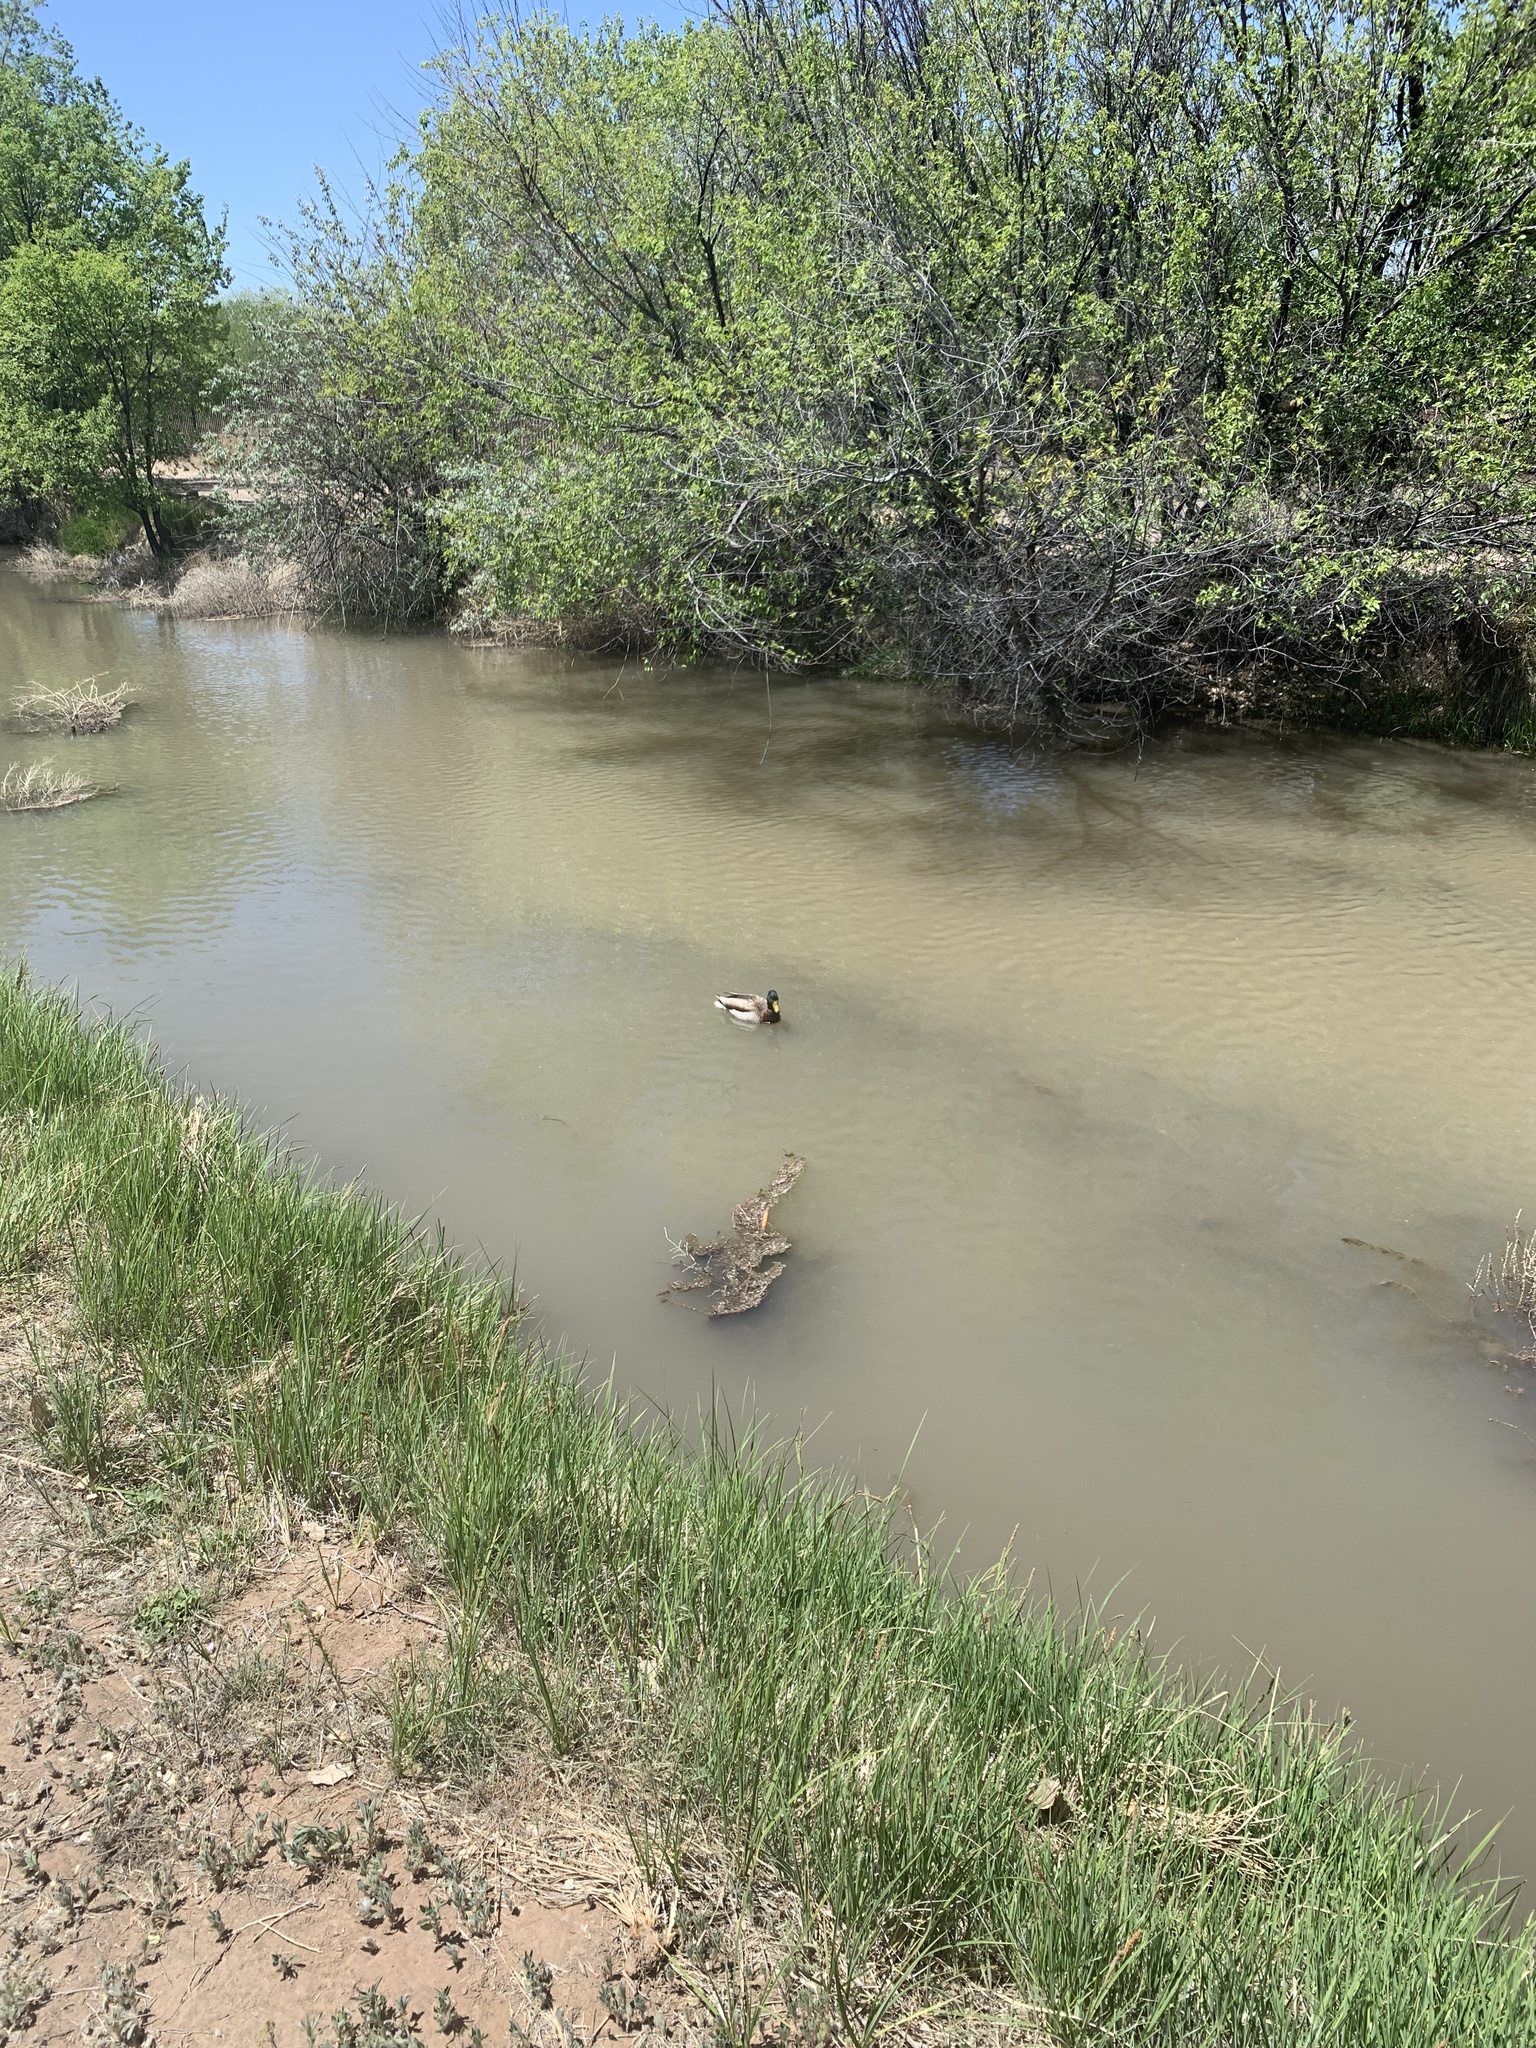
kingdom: Animalia
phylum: Chordata
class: Aves
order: Anseriformes
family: Anatidae
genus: Anas
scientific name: Anas platyrhynchos
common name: Mallard
